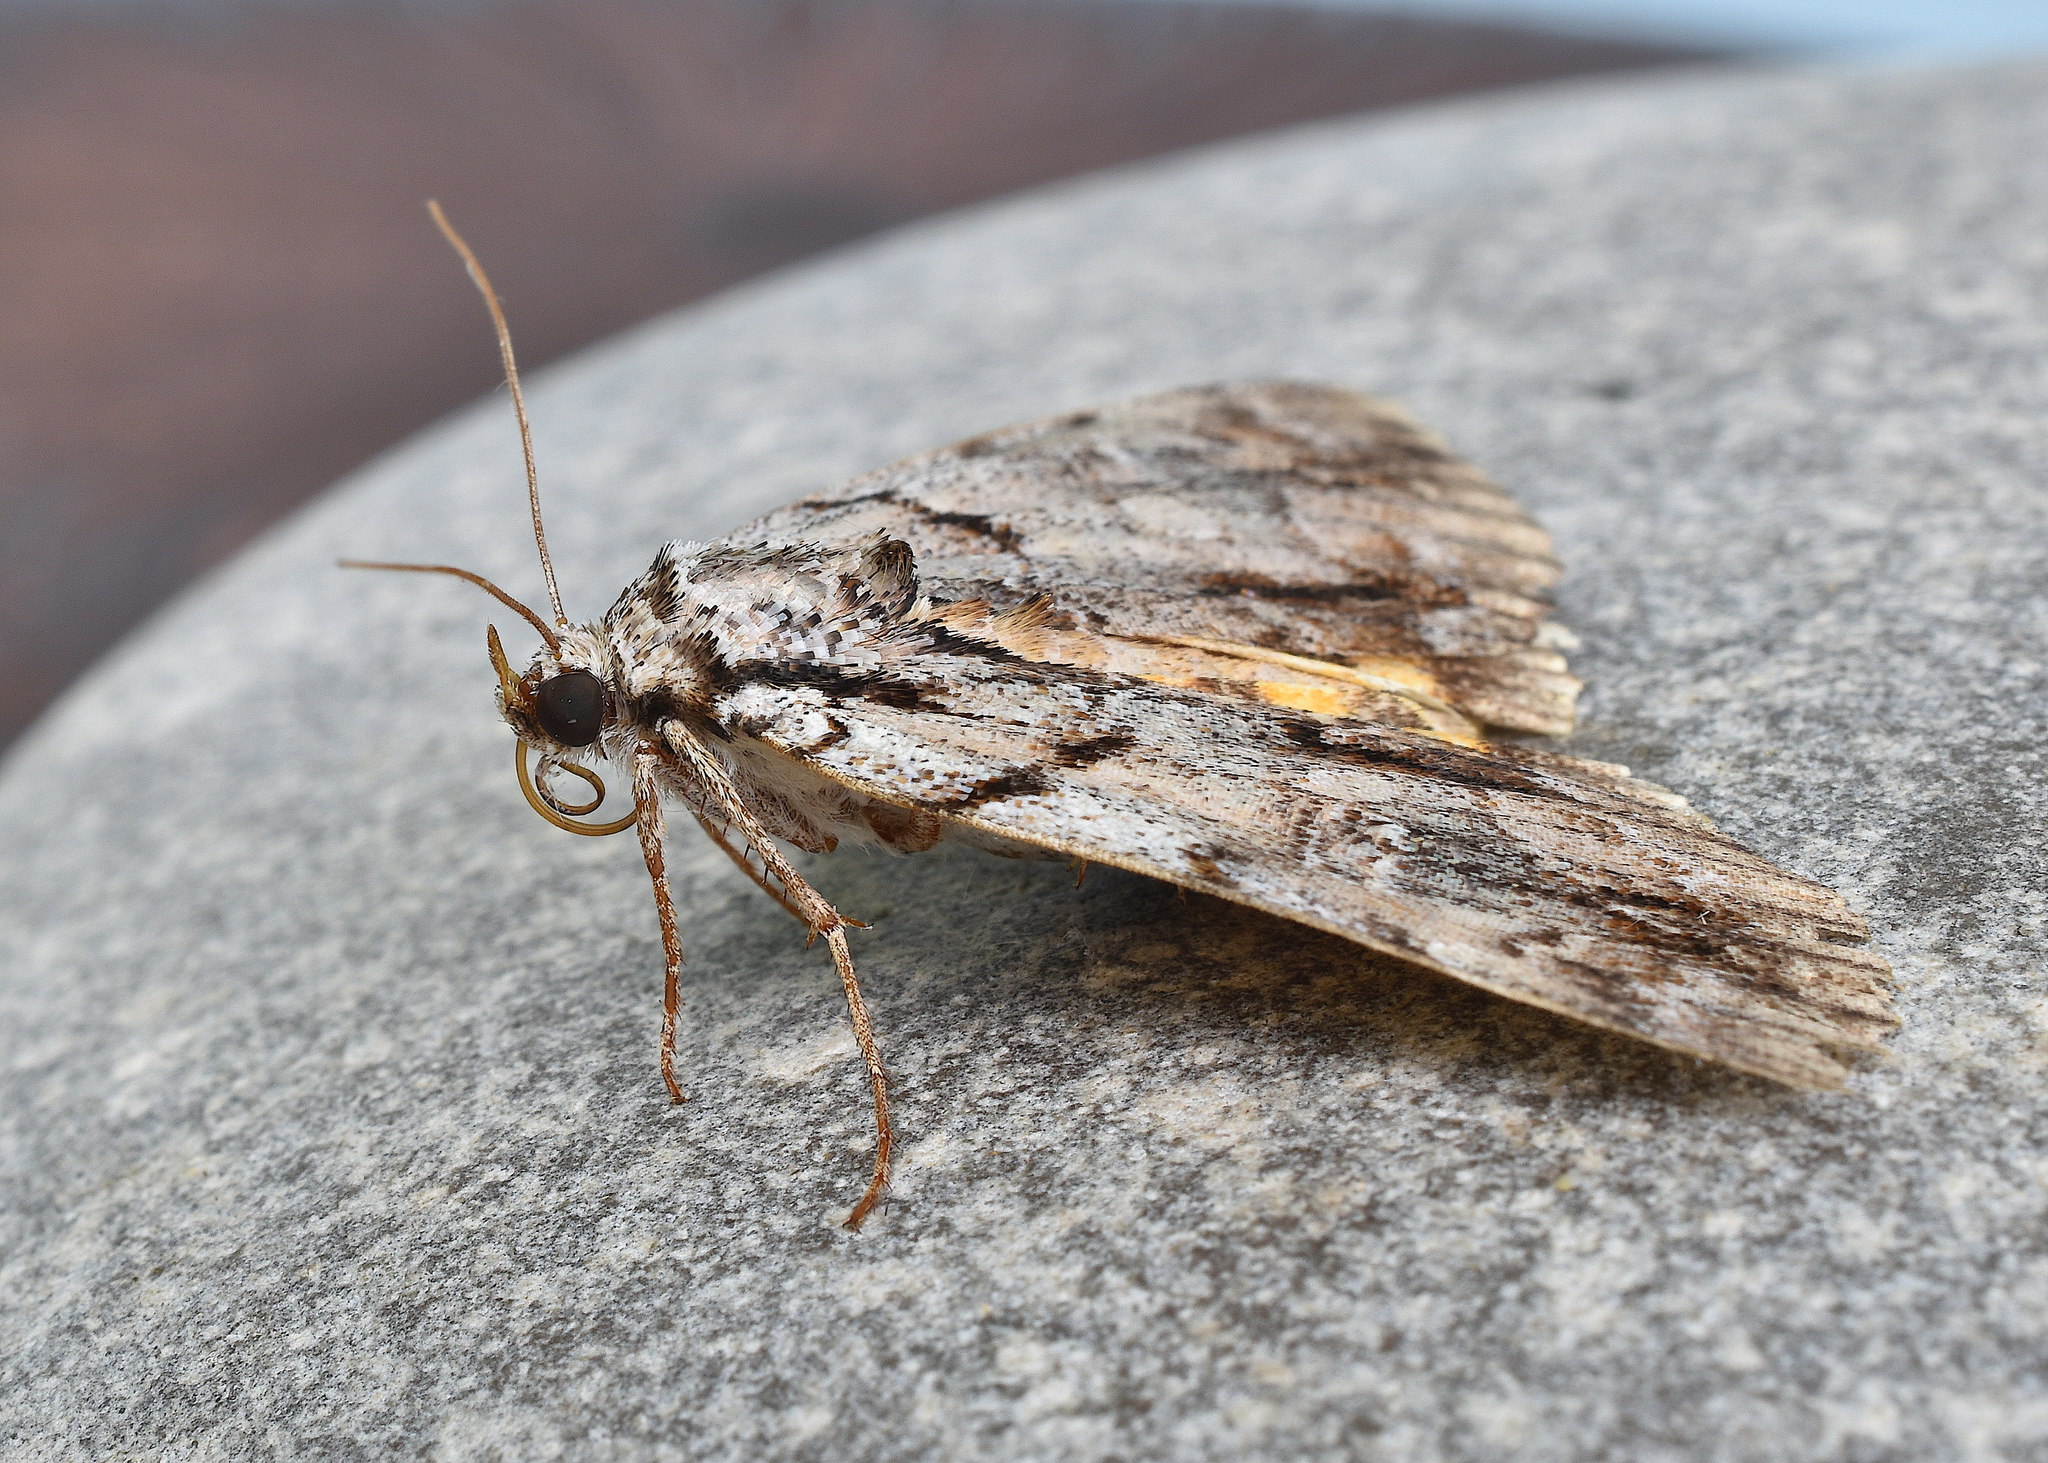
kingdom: Animalia
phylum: Arthropoda
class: Insecta
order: Lepidoptera
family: Erebidae
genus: Catocala
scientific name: Catocala praeclara
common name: Praeclara underwing
